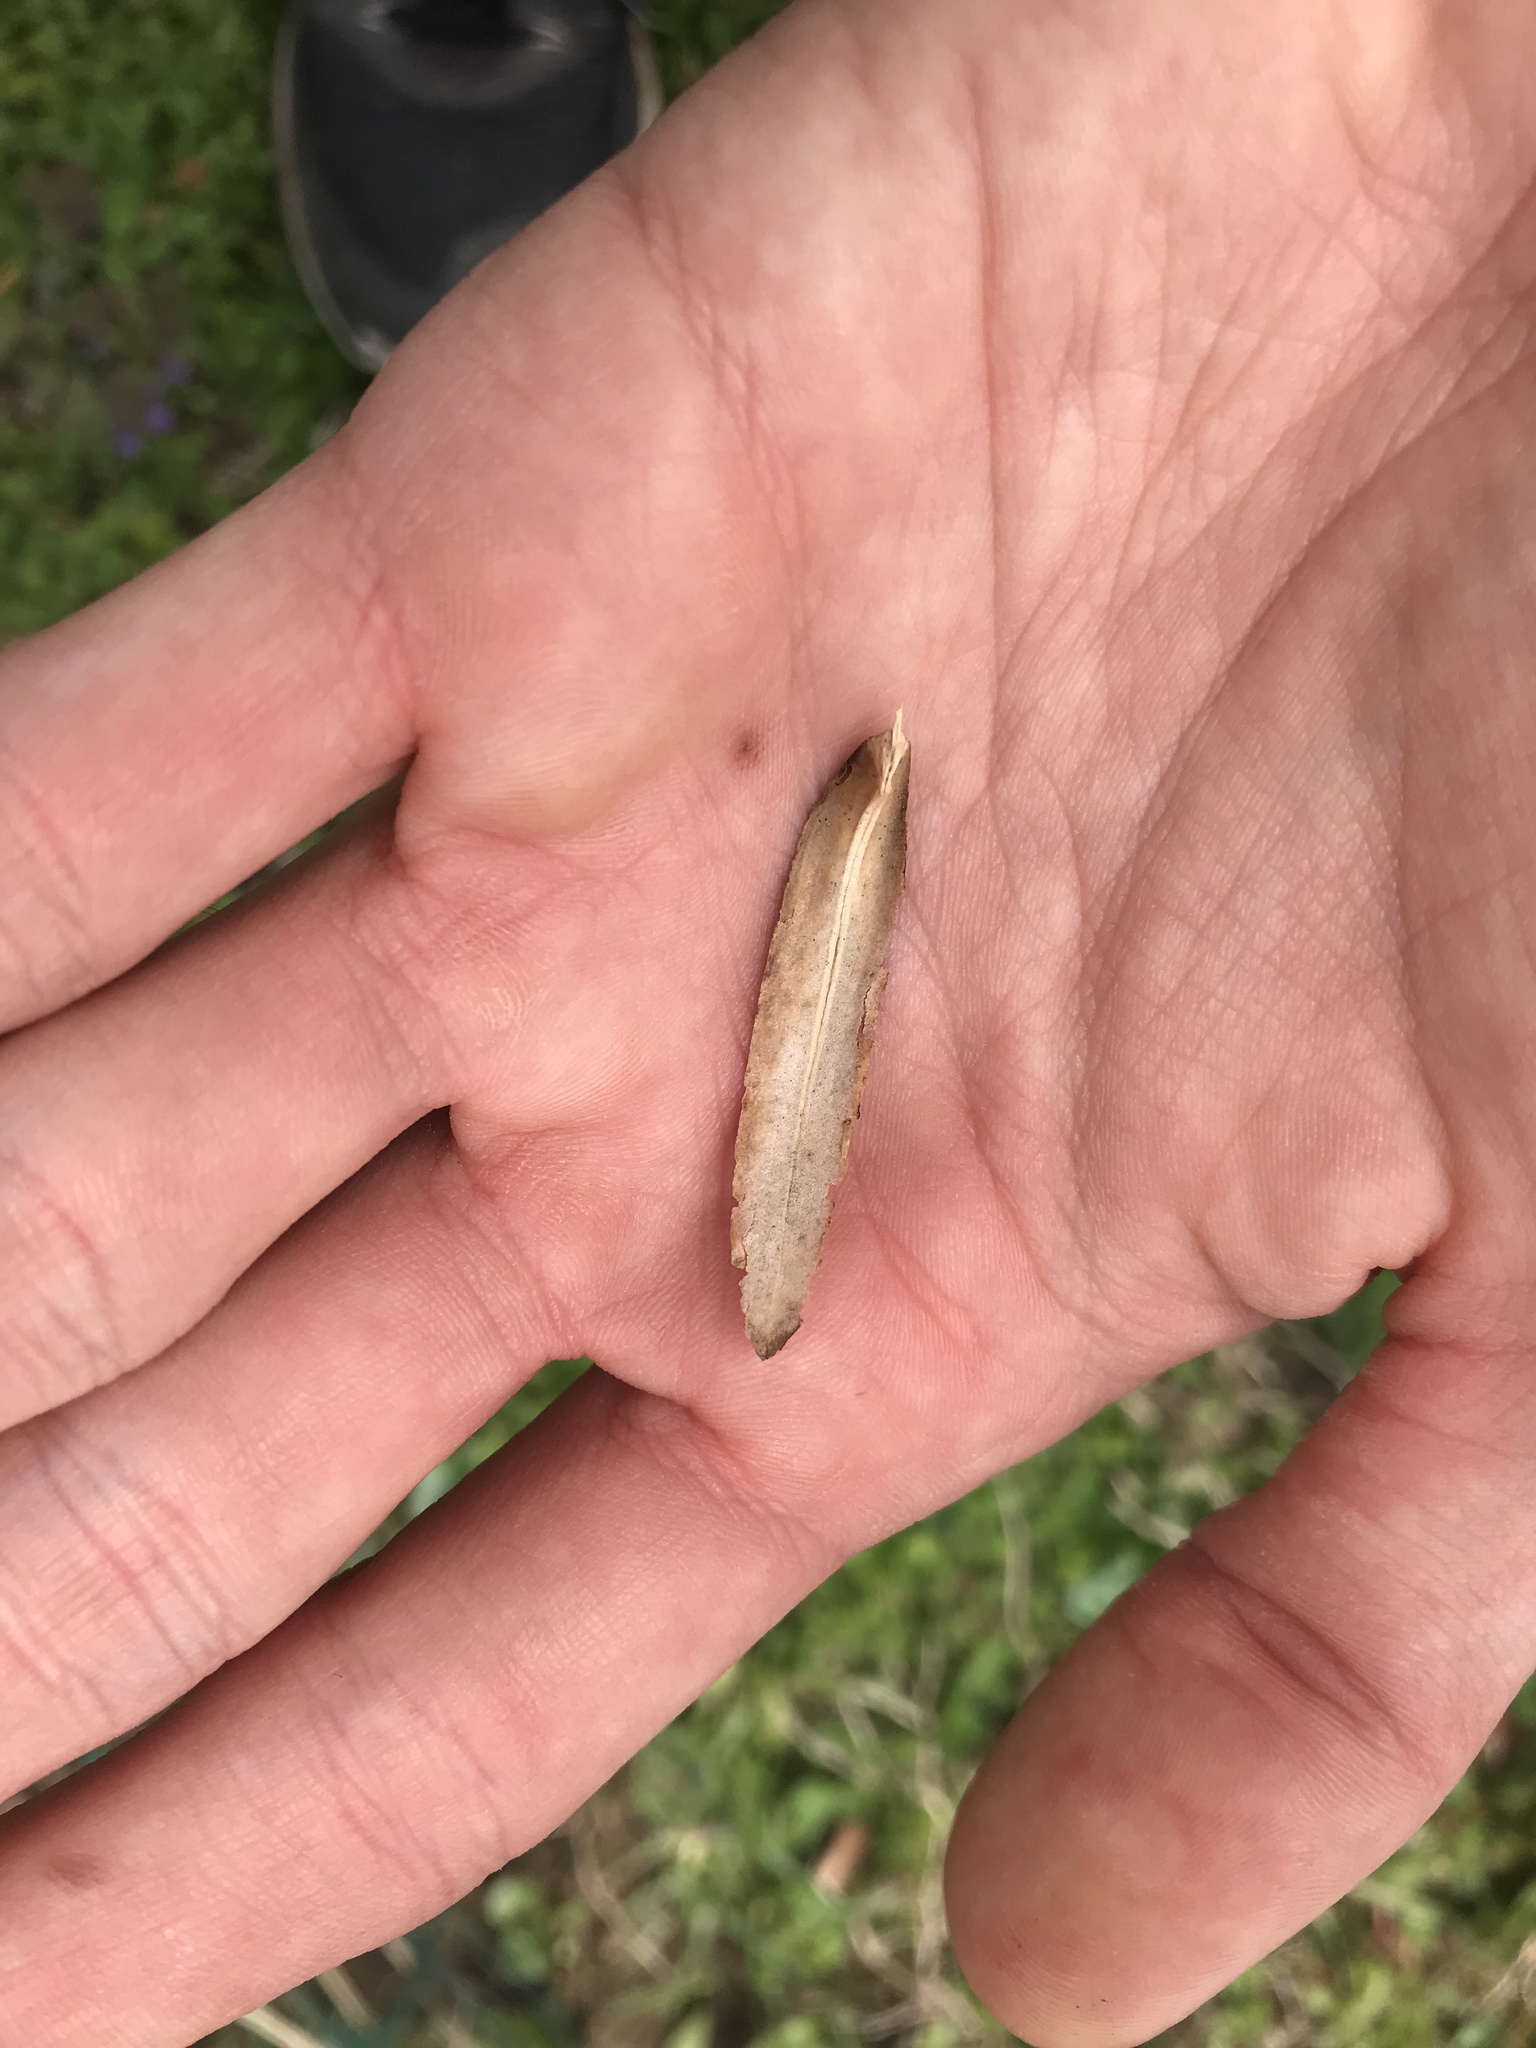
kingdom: Plantae
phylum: Tracheophyta
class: Magnoliopsida
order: Magnoliales
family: Magnoliaceae
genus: Liriodendron
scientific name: Liriodendron tulipifera
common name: Tulip tree
